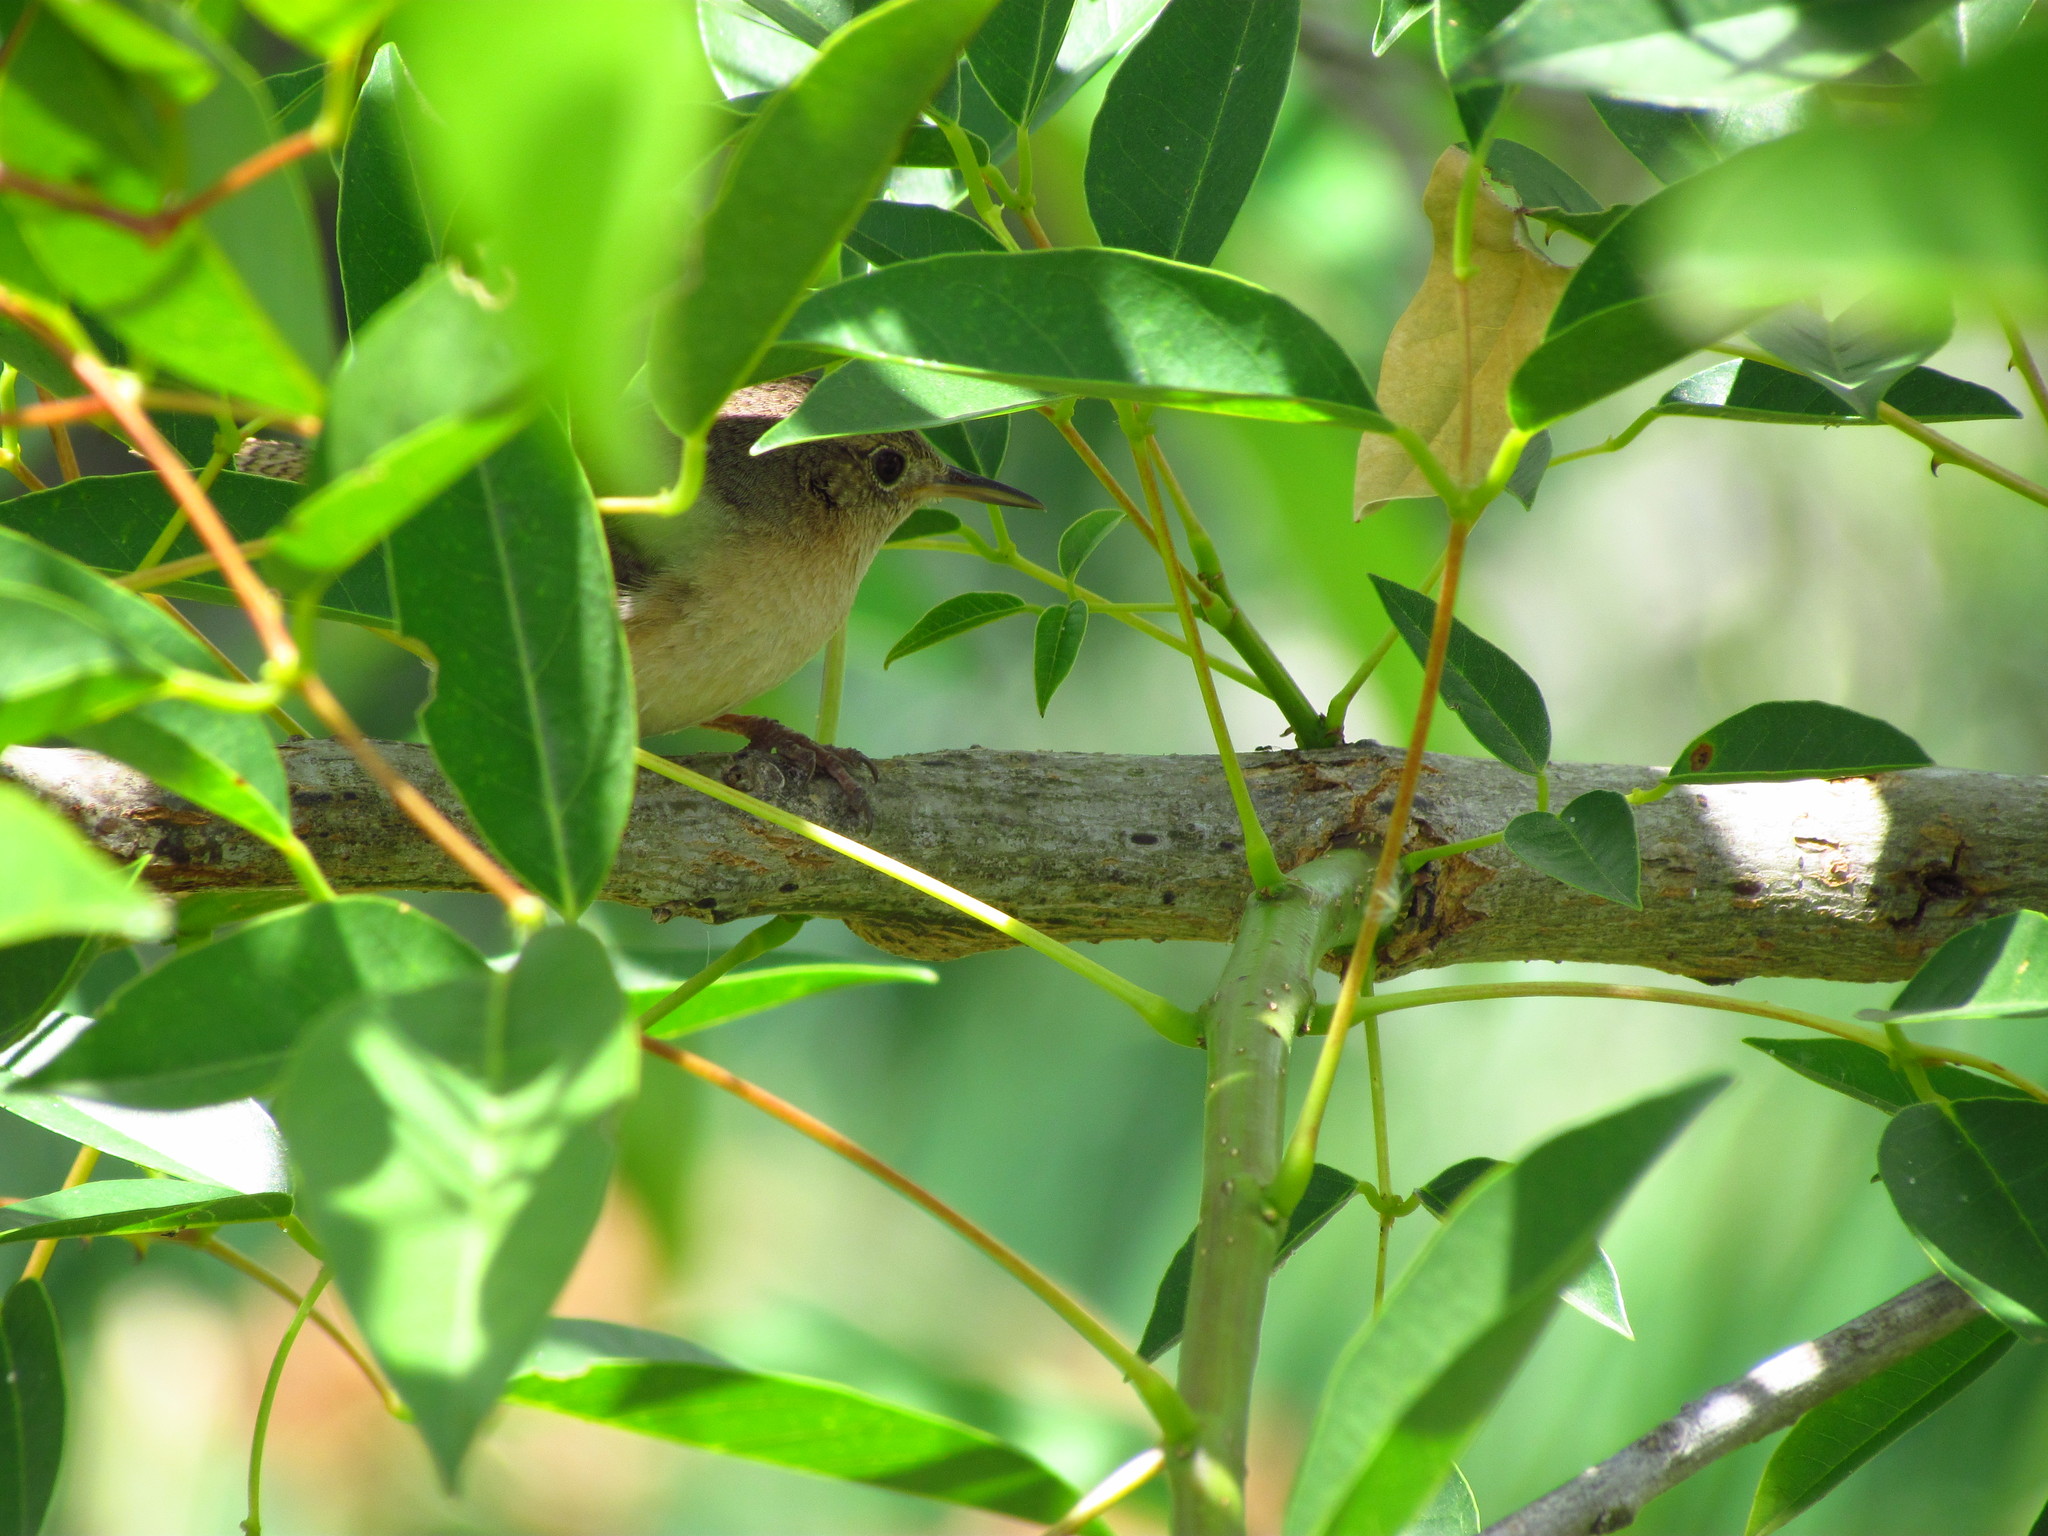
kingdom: Animalia
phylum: Chordata
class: Aves
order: Passeriformes
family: Troglodytidae
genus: Troglodytes
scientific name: Troglodytes aedon
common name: House wren
